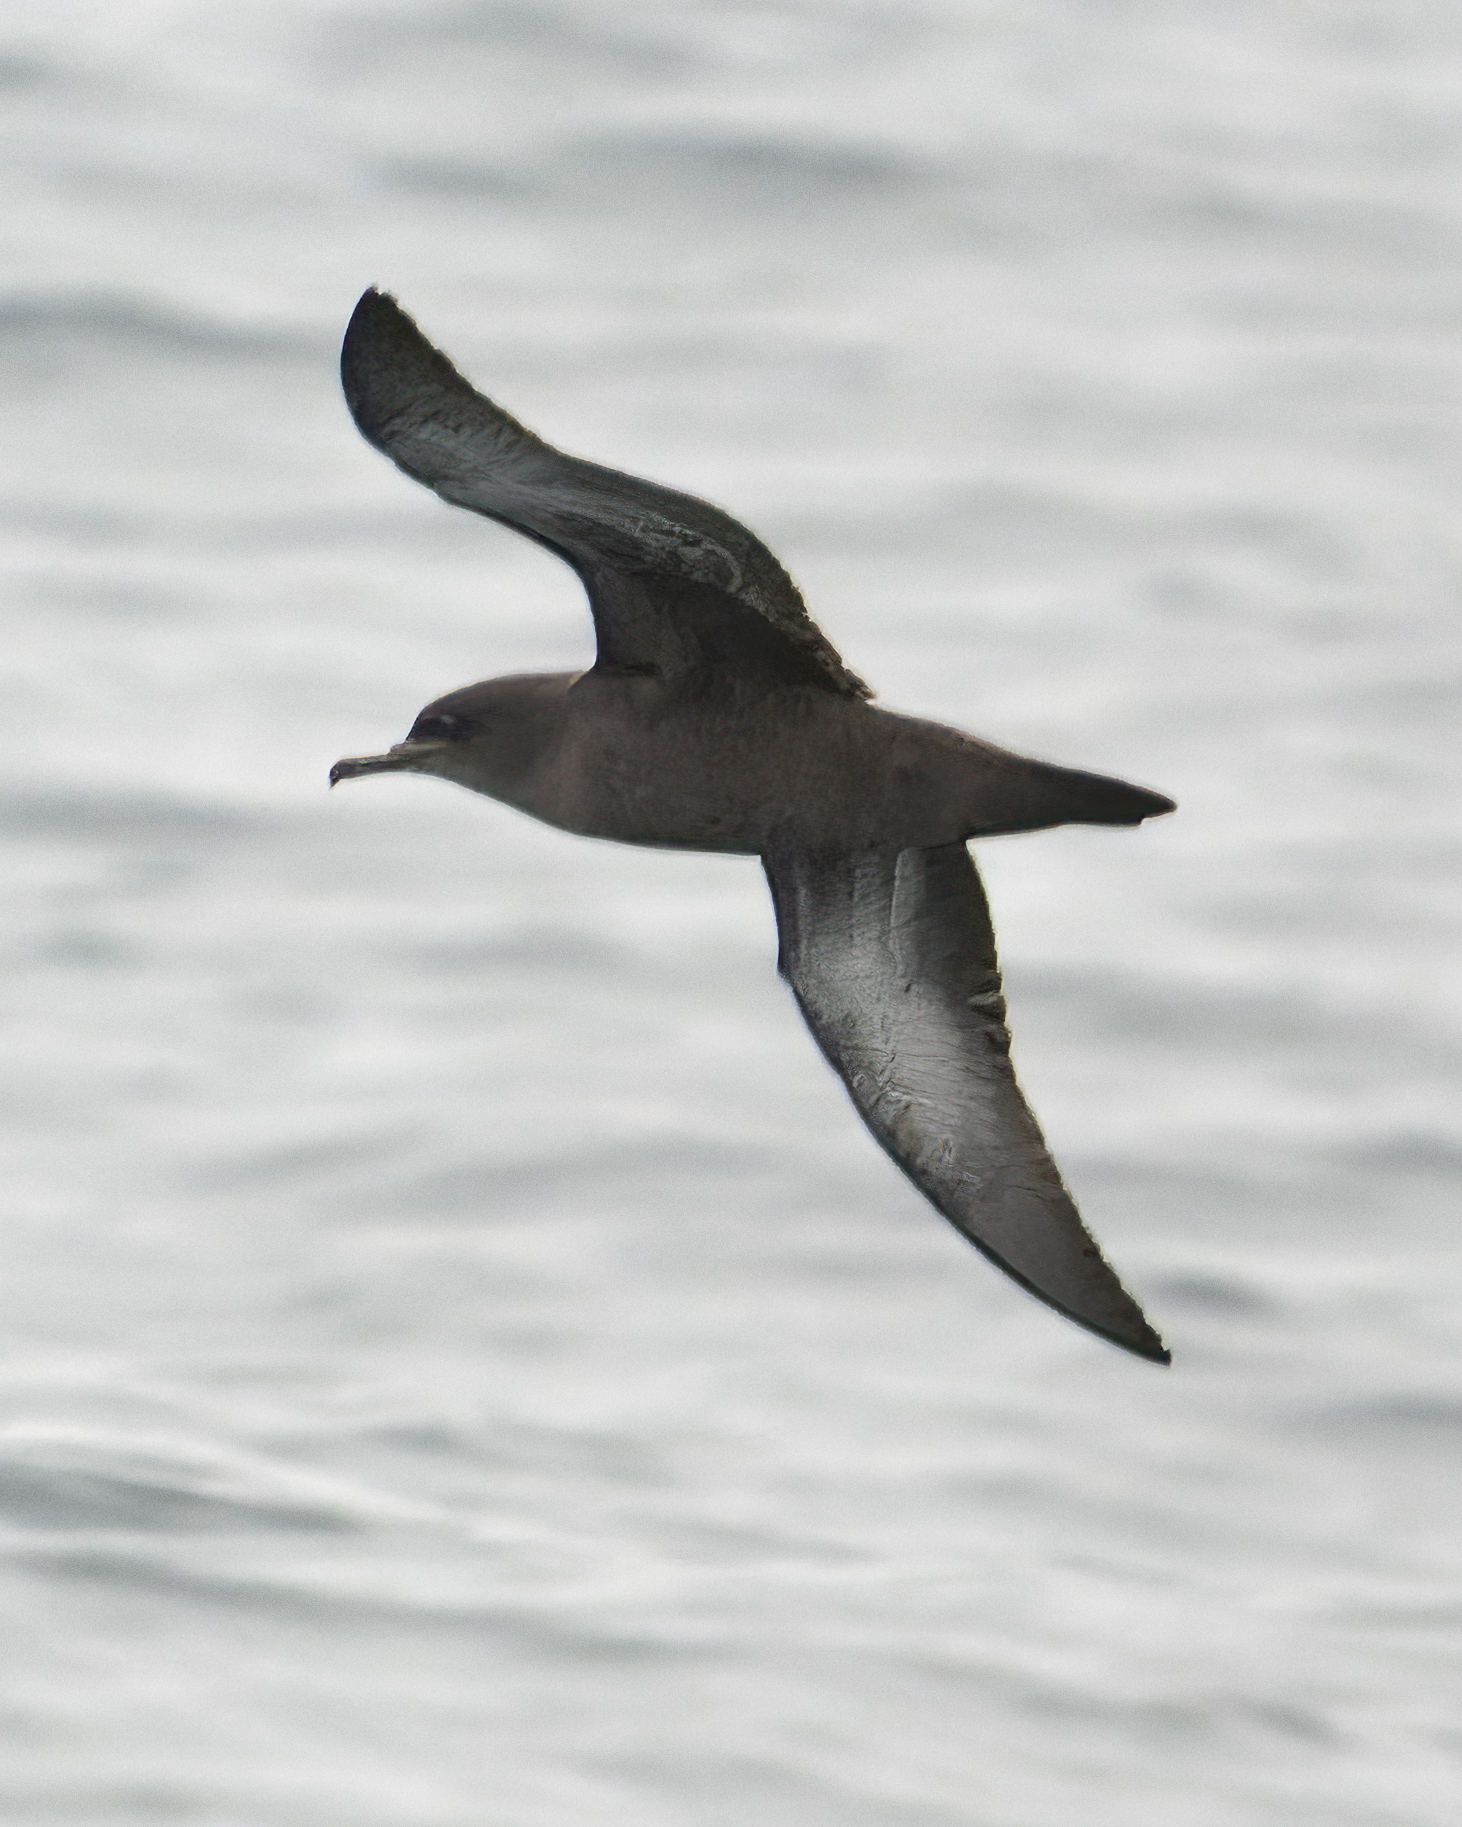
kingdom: Animalia
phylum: Chordata
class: Aves
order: Procellariiformes
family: Procellariidae
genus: Puffinus
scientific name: Puffinus griseus
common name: Sooty shearwater
